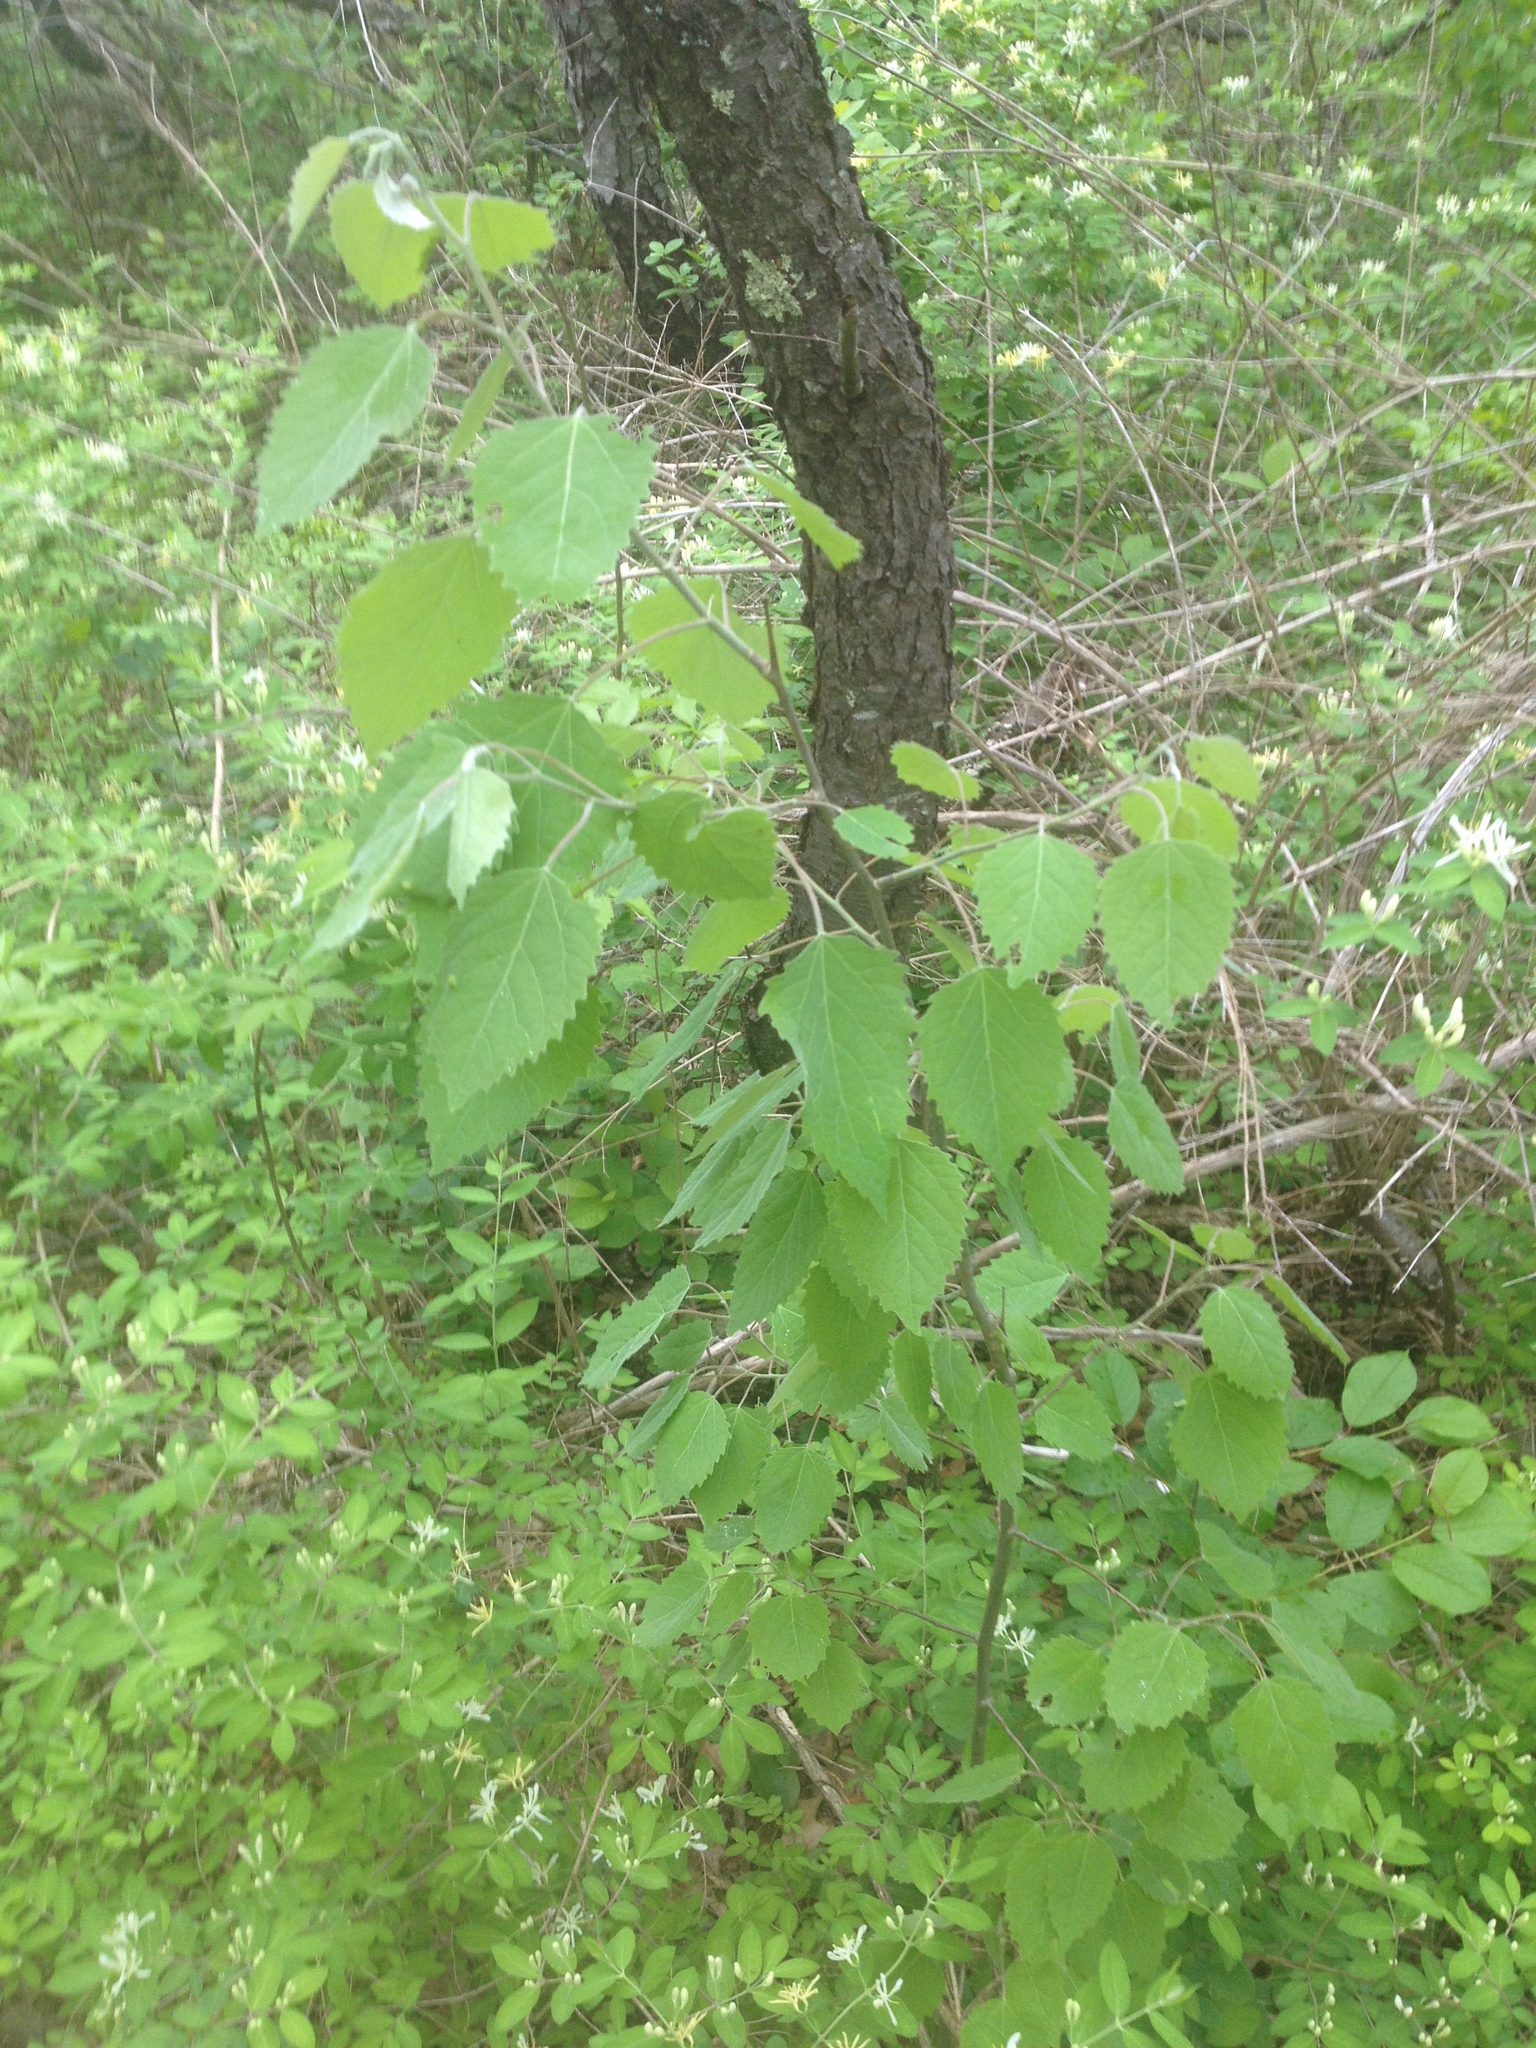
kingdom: Plantae
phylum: Tracheophyta
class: Magnoliopsida
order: Malpighiales
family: Salicaceae
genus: Populus
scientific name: Populus grandidentata
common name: Bigtooth aspen
